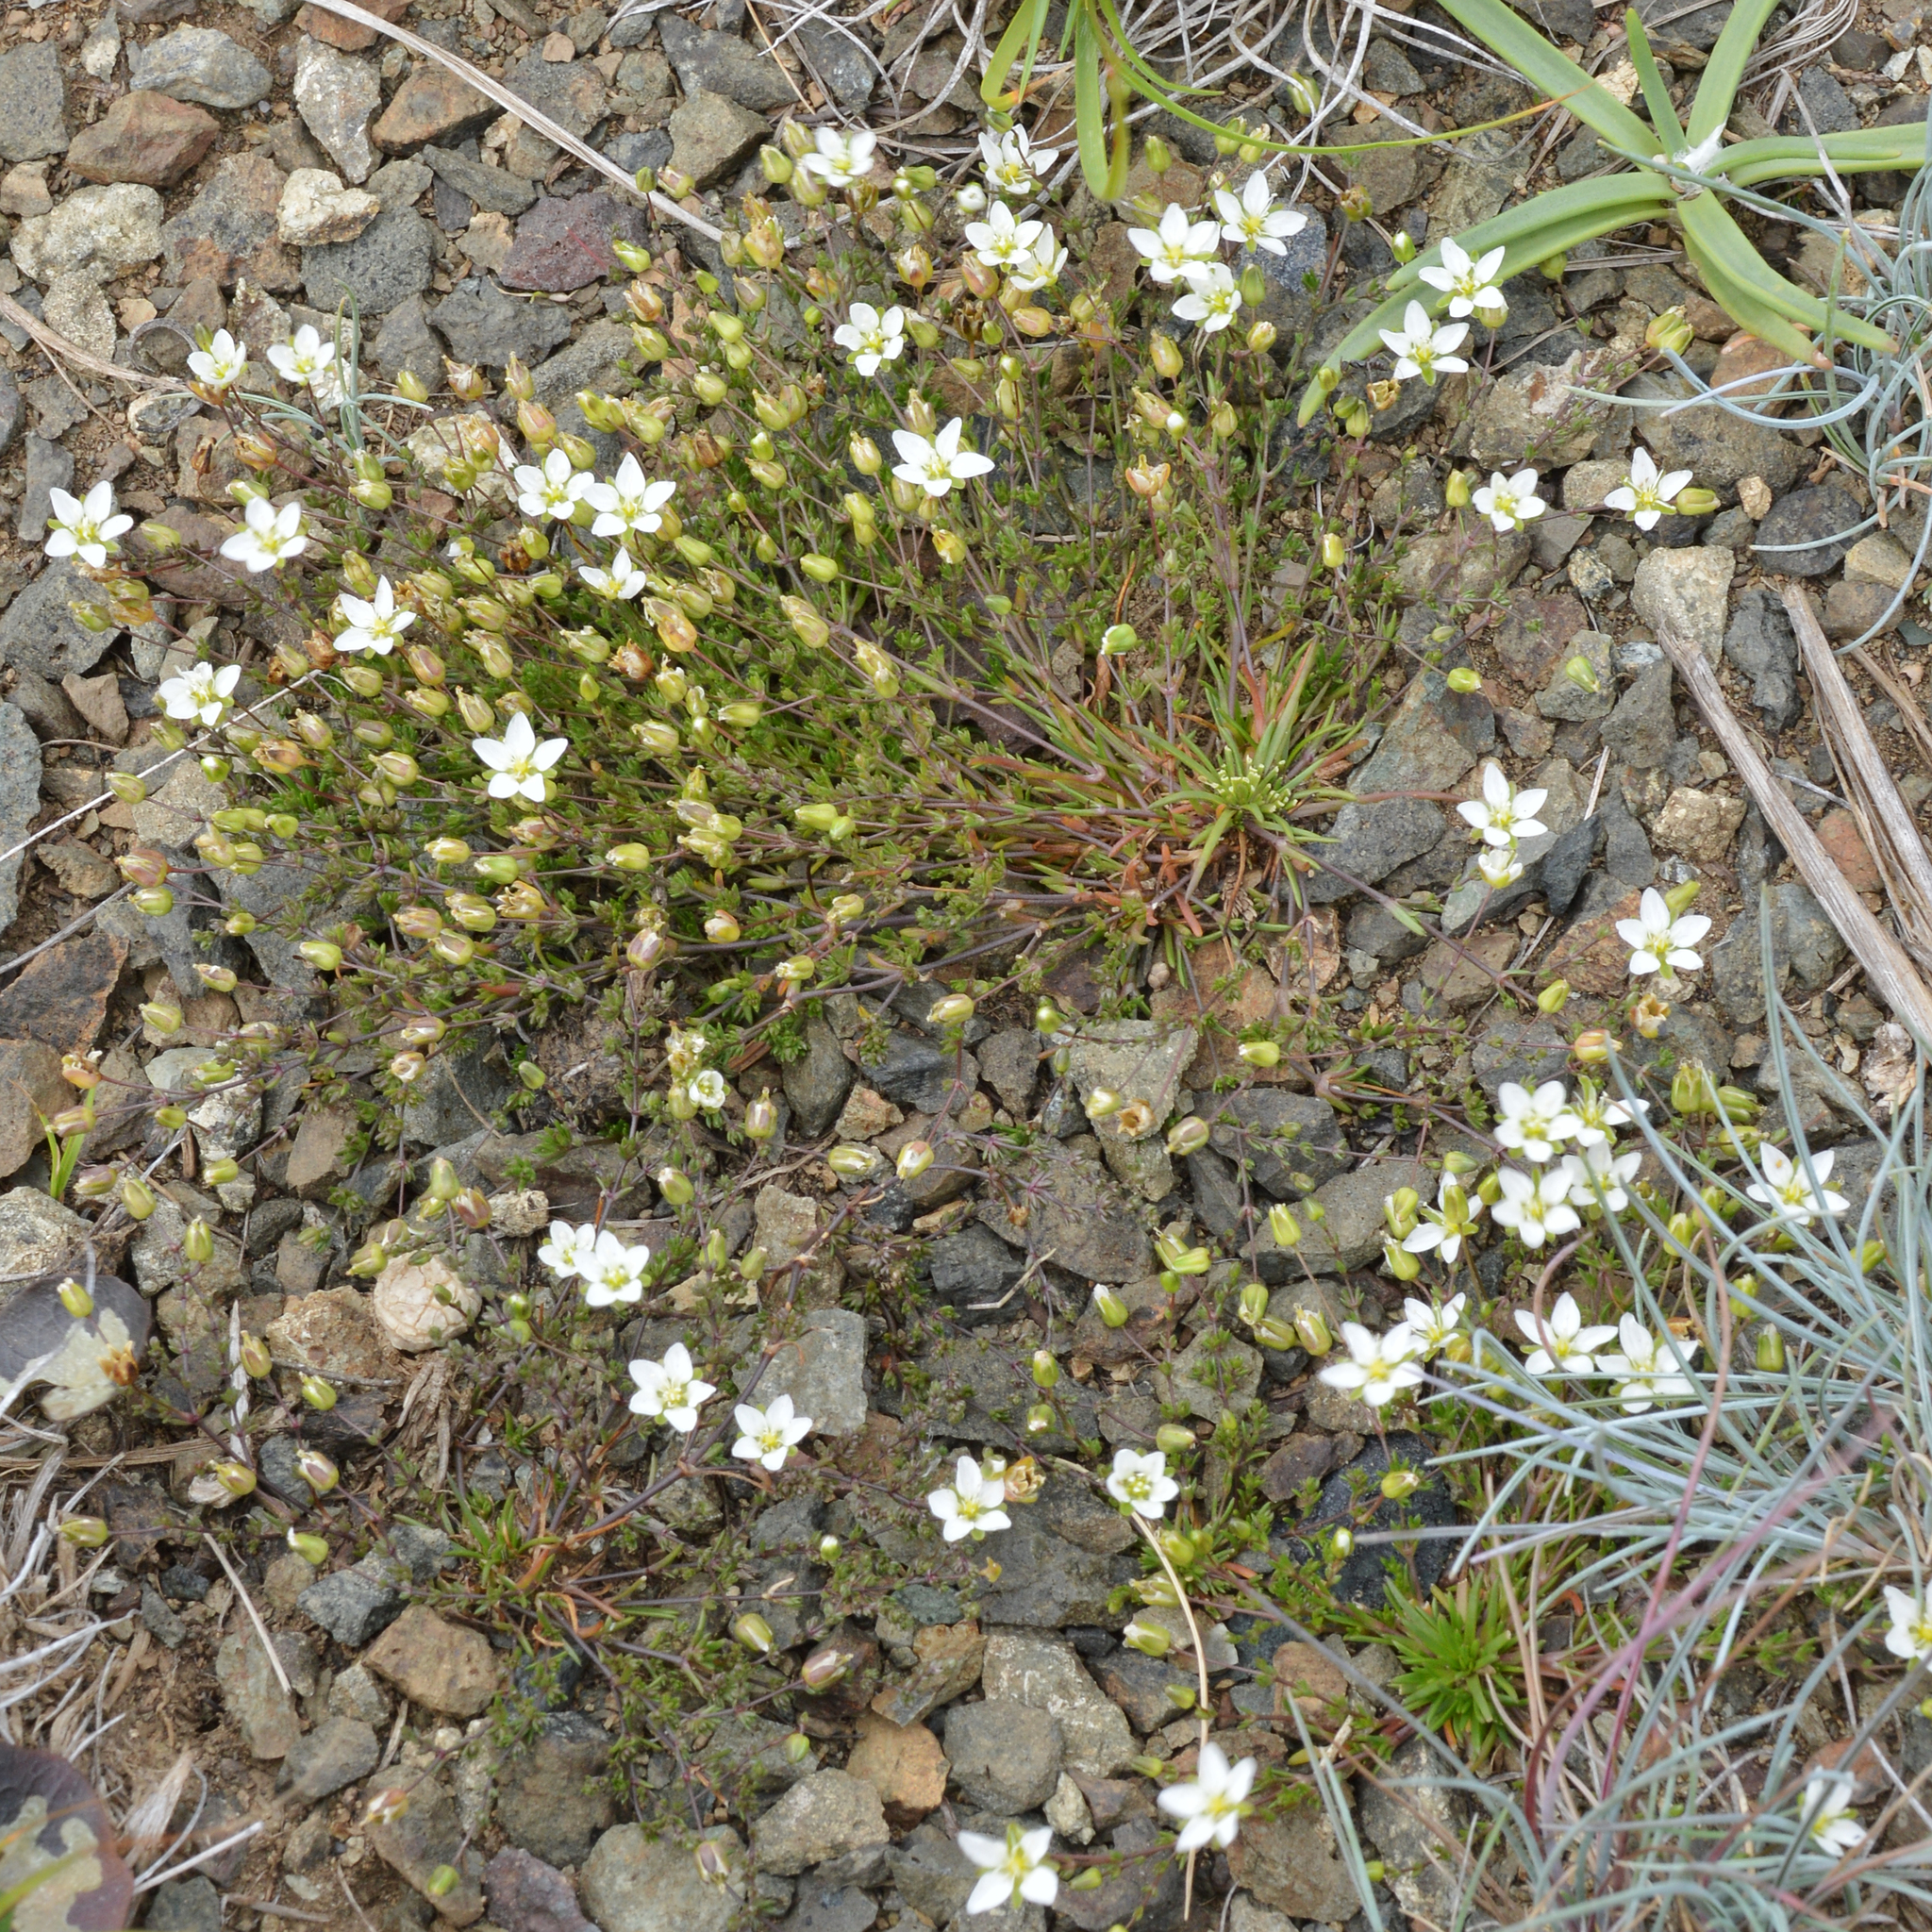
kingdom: Plantae
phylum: Tracheophyta
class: Magnoliopsida
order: Caryophyllales
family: Caryophyllaceae
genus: Sagina
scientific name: Sagina nodosa
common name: Knotted pearlwort
